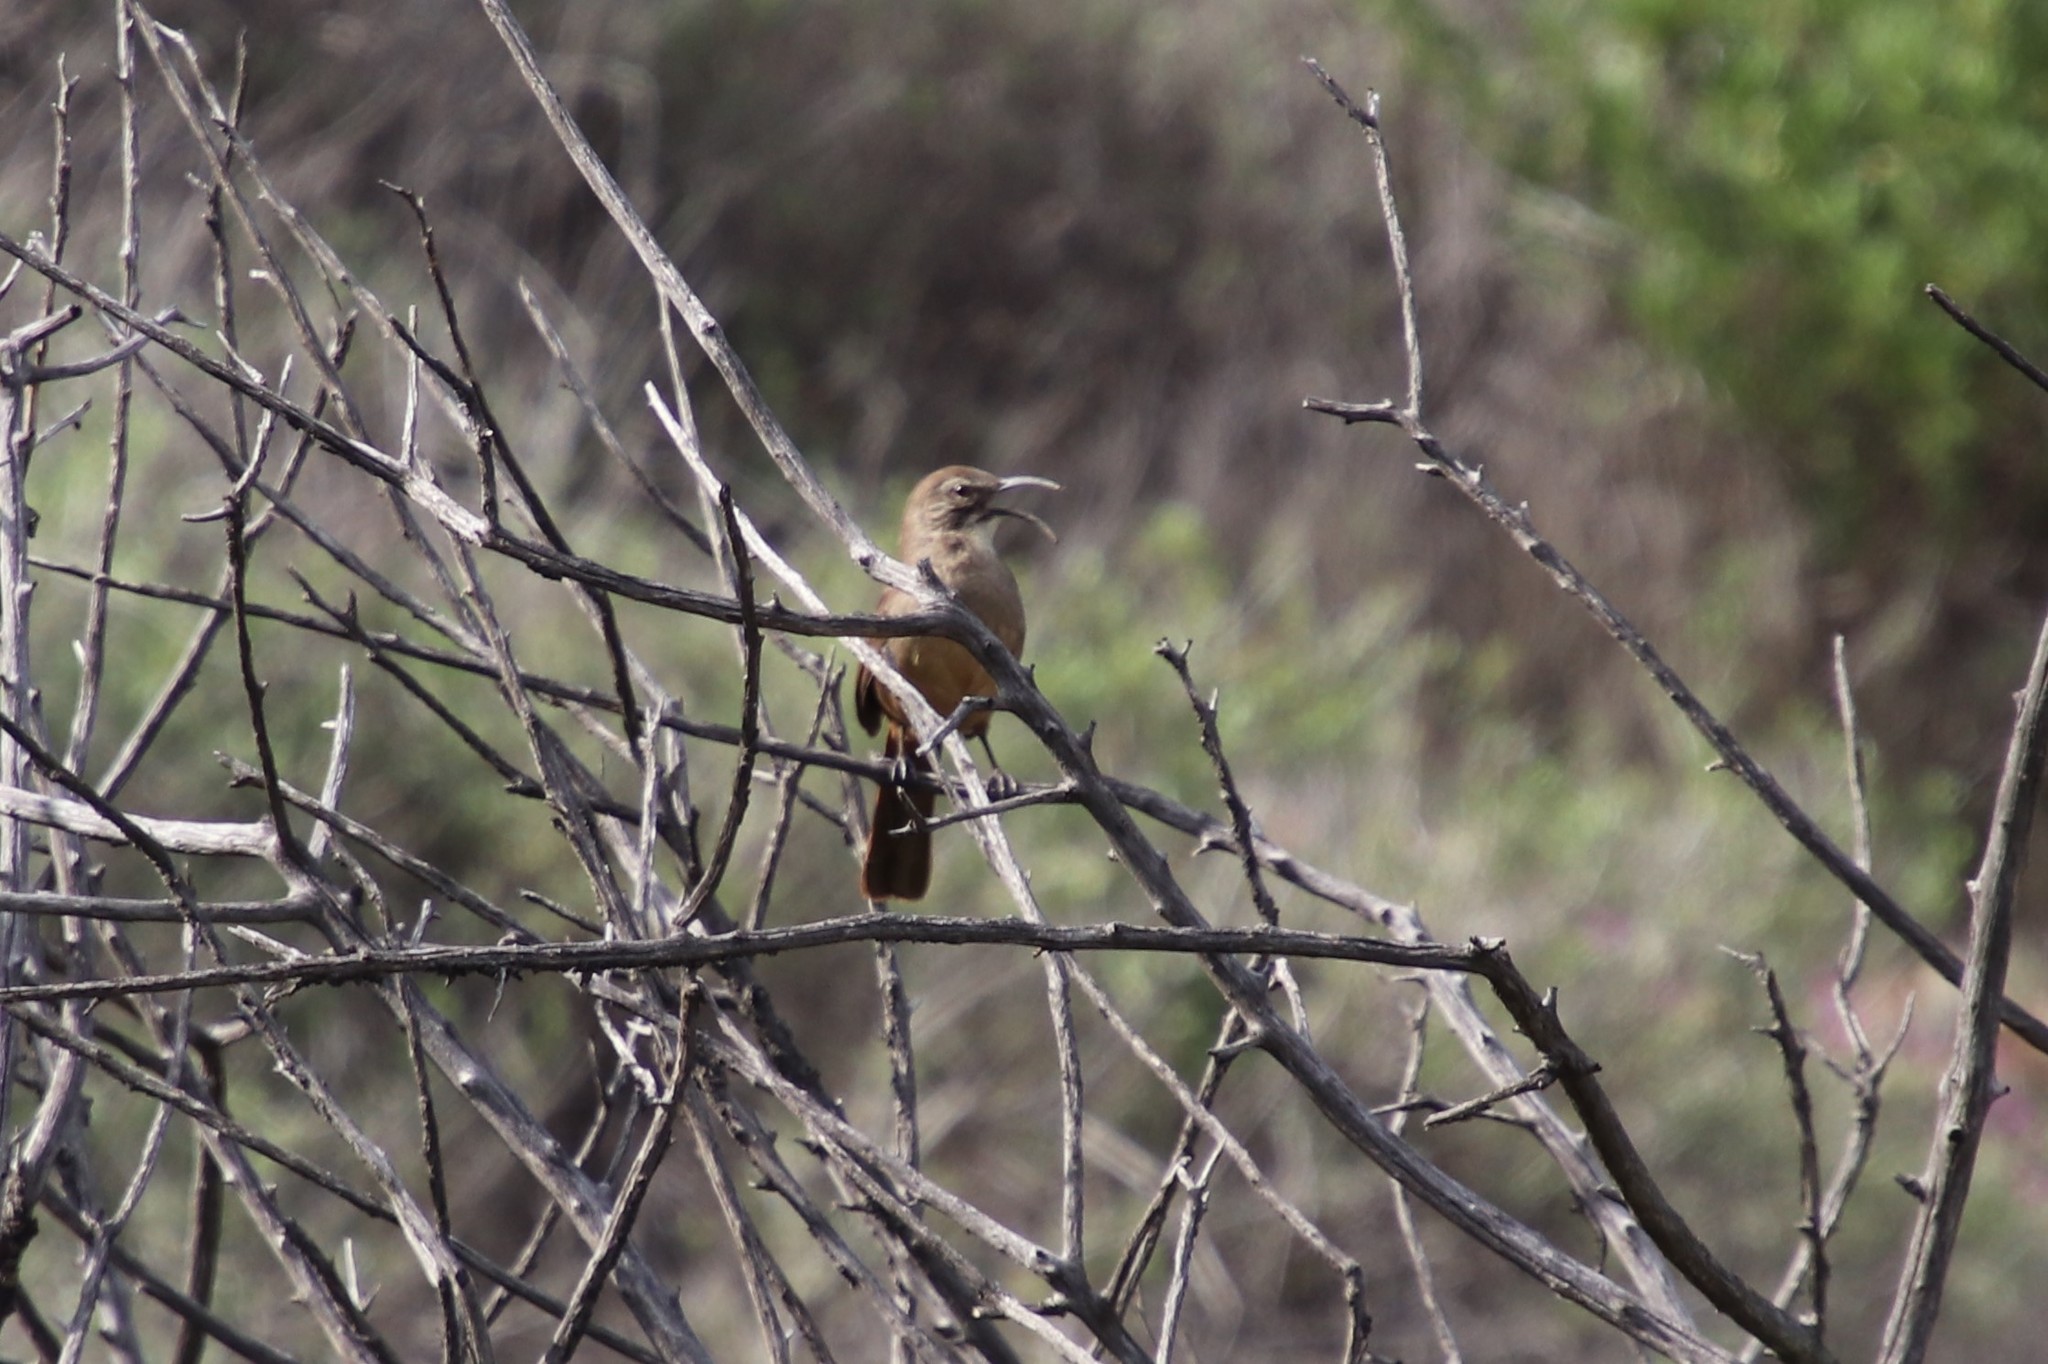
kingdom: Animalia
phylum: Chordata
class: Aves
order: Passeriformes
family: Mimidae
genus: Toxostoma
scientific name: Toxostoma redivivum
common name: California thrasher
